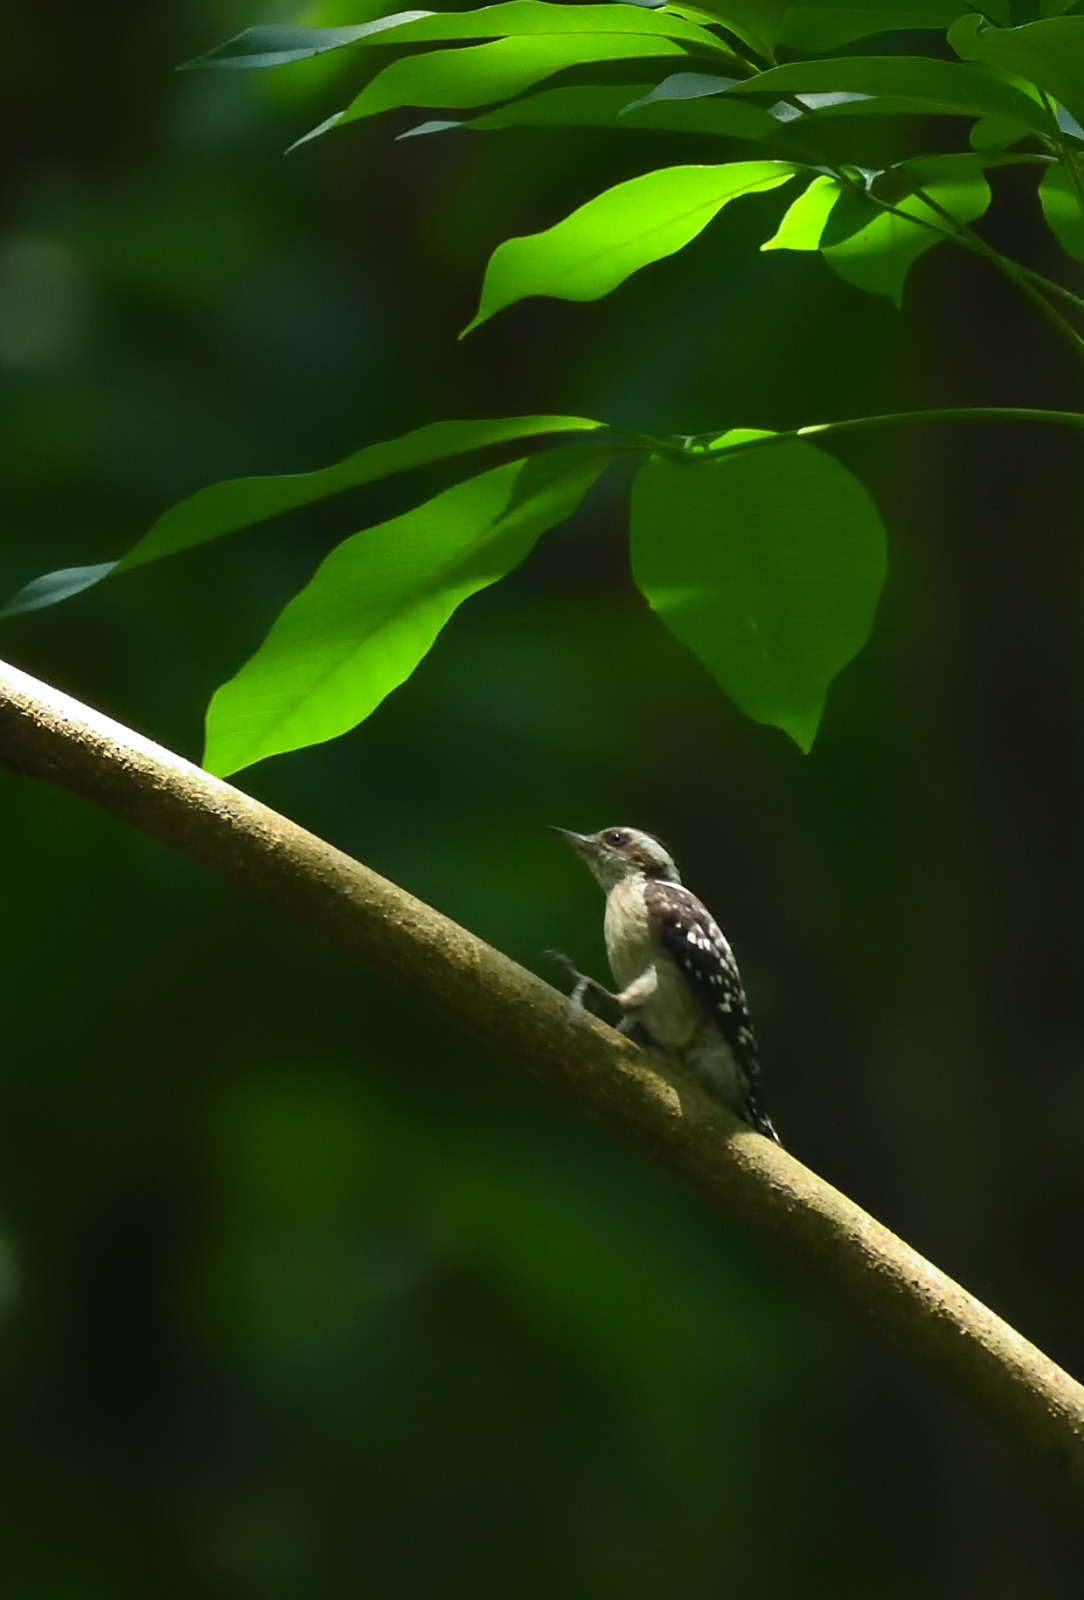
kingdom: Animalia
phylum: Chordata
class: Aves
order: Piciformes
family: Picidae
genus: Yungipicus
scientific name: Yungipicus nanus
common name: Brown-capped pygmy woodpecker
